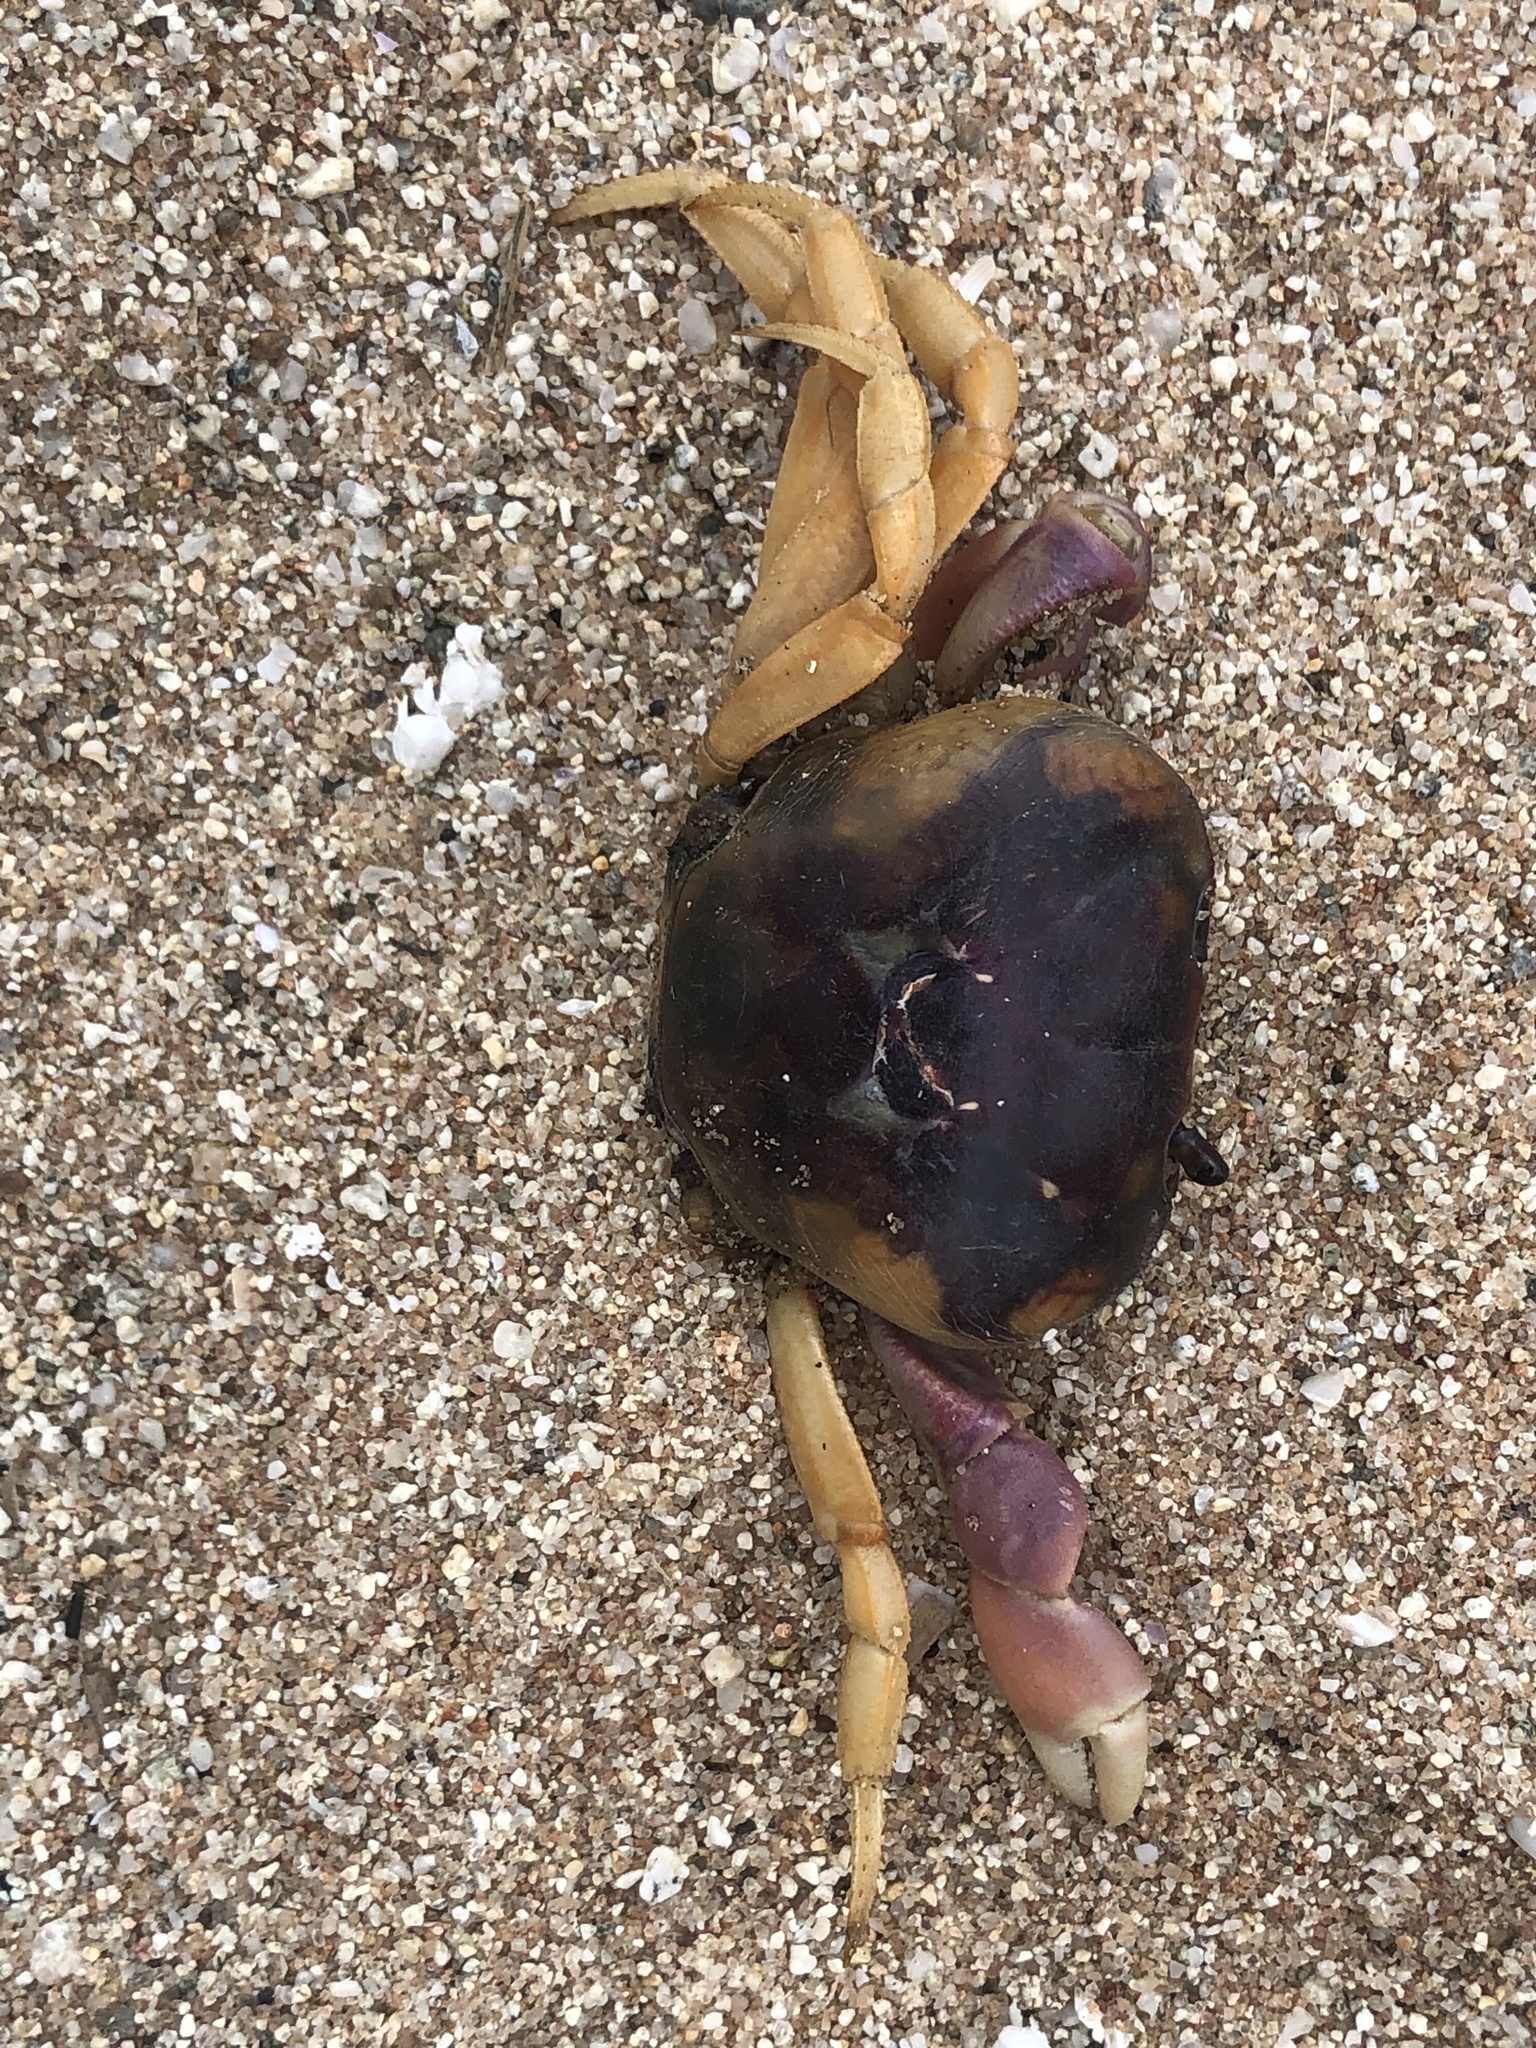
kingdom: Animalia
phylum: Arthropoda
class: Malacostraca
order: Decapoda
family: Gecarcinidae
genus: Gecarcinus
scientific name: Gecarcinus quadratus
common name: Halloween crab
